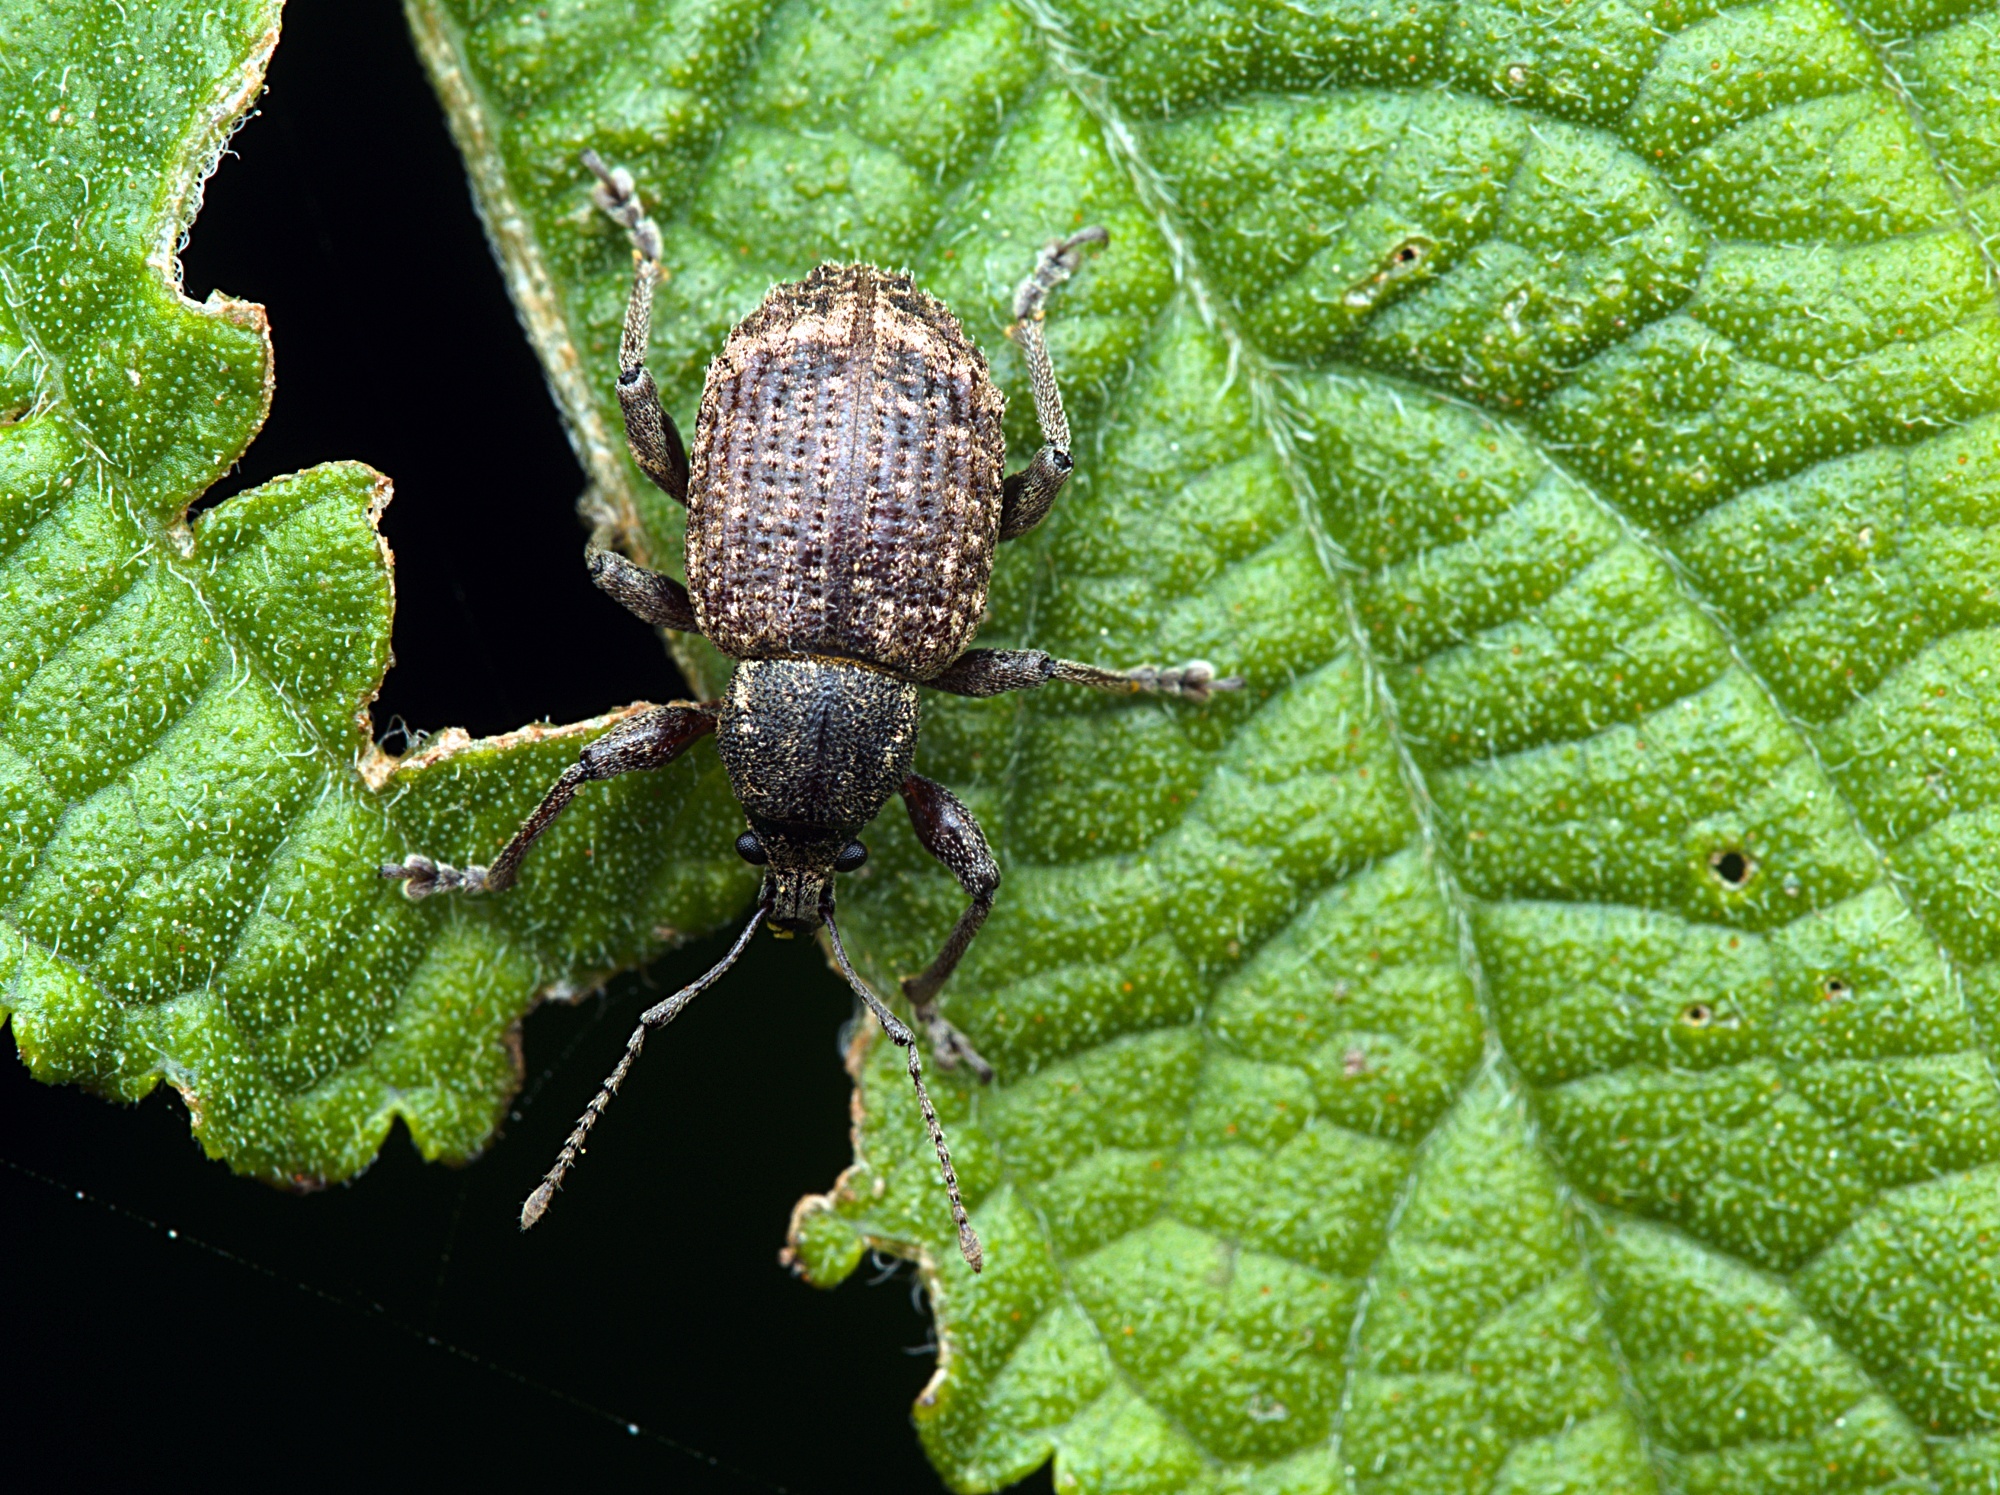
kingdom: Animalia
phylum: Arthropoda
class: Insecta
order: Coleoptera
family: Curculionidae
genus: Phlyctinus
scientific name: Phlyctinus callosus
